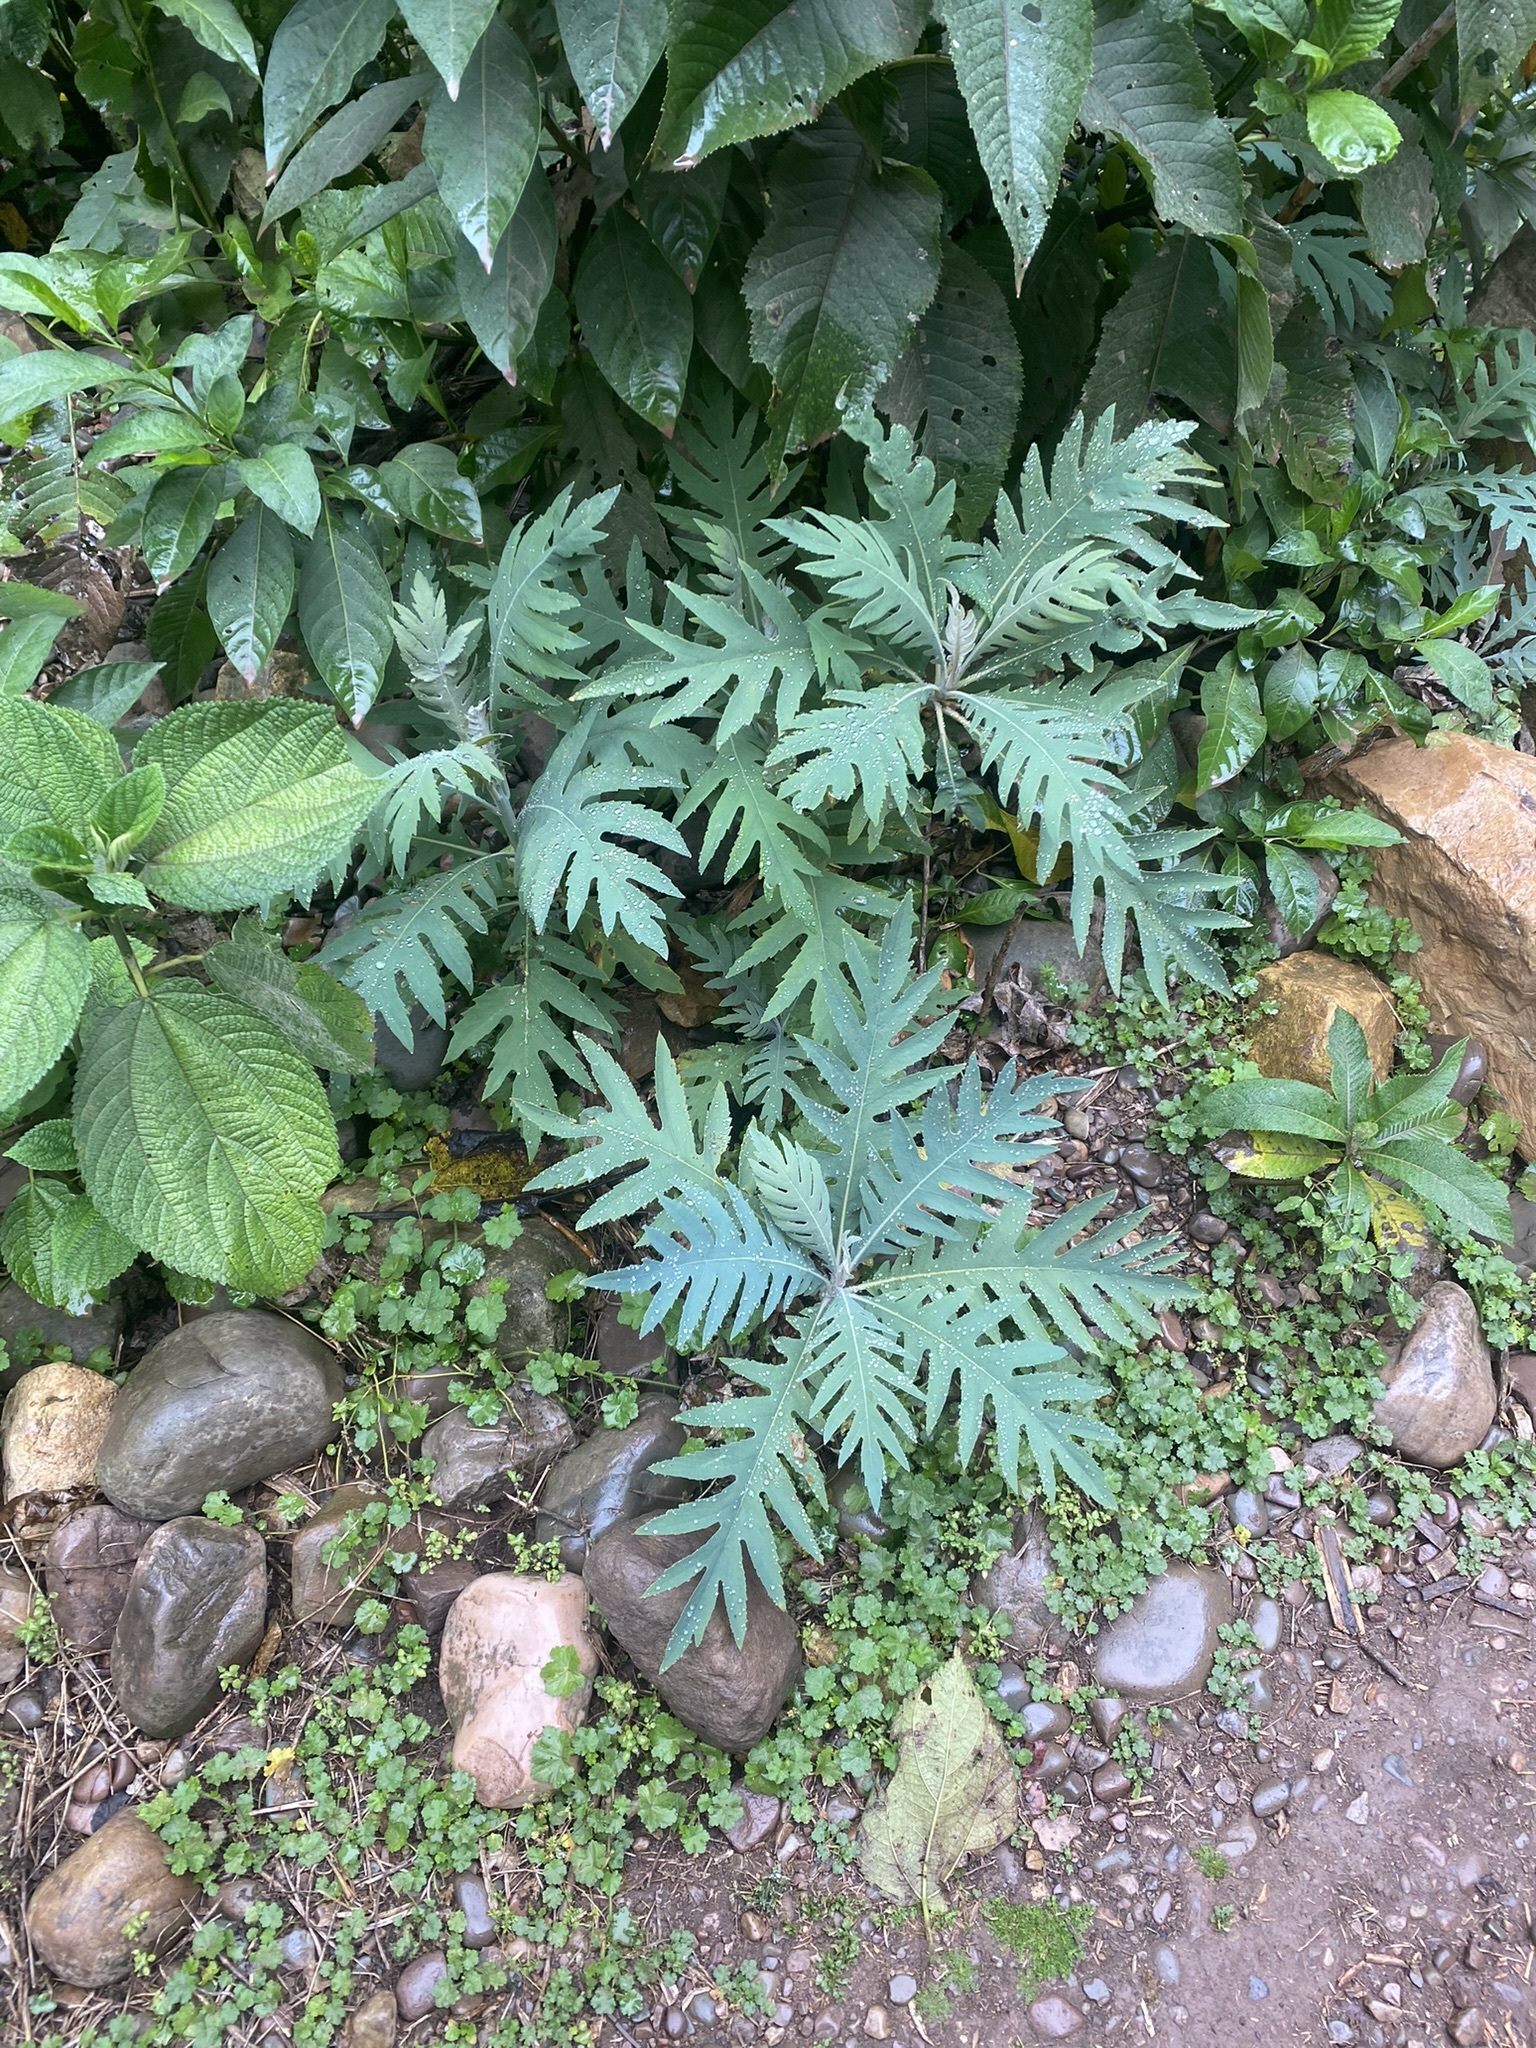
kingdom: Plantae
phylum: Tracheophyta
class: Magnoliopsida
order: Ranunculales
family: Papaveraceae
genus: Bocconia
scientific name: Bocconia frutescens
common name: Tree poppy
